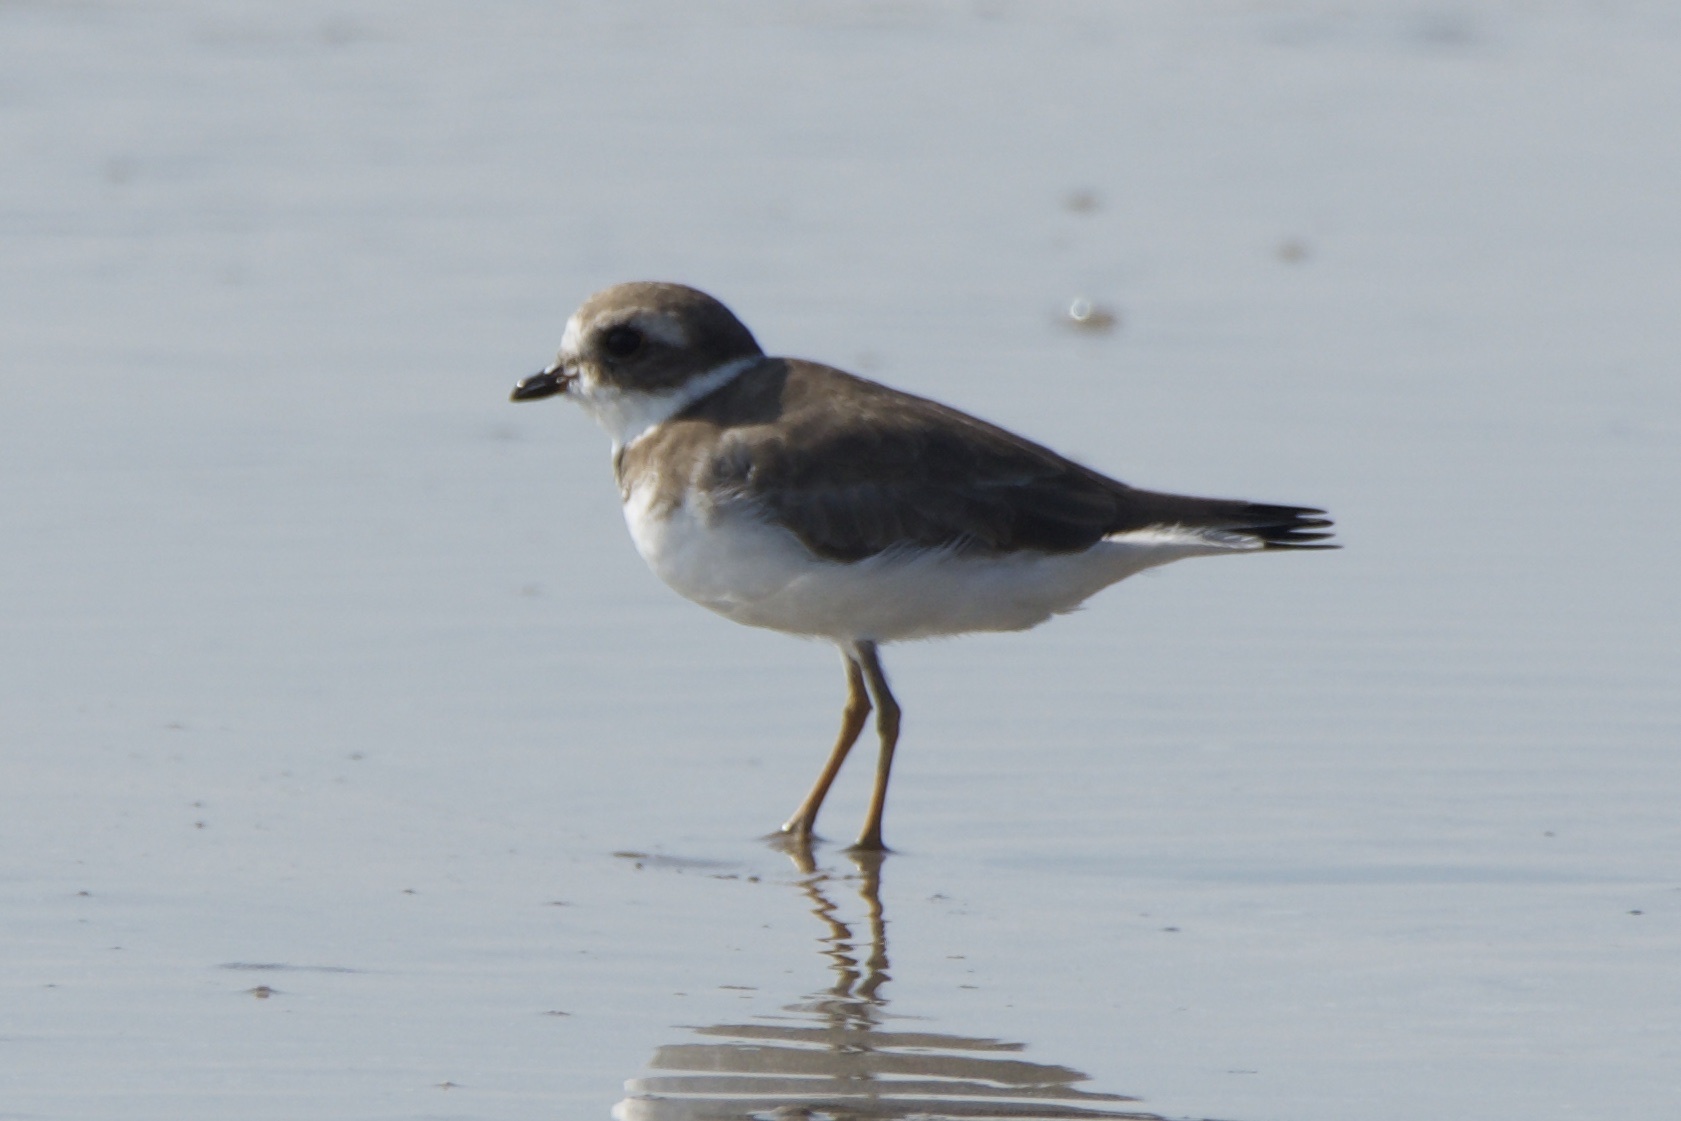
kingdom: Animalia
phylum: Chordata
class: Aves
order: Charadriiformes
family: Charadriidae
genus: Charadrius
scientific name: Charadrius semipalmatus
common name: Semipalmated plover
